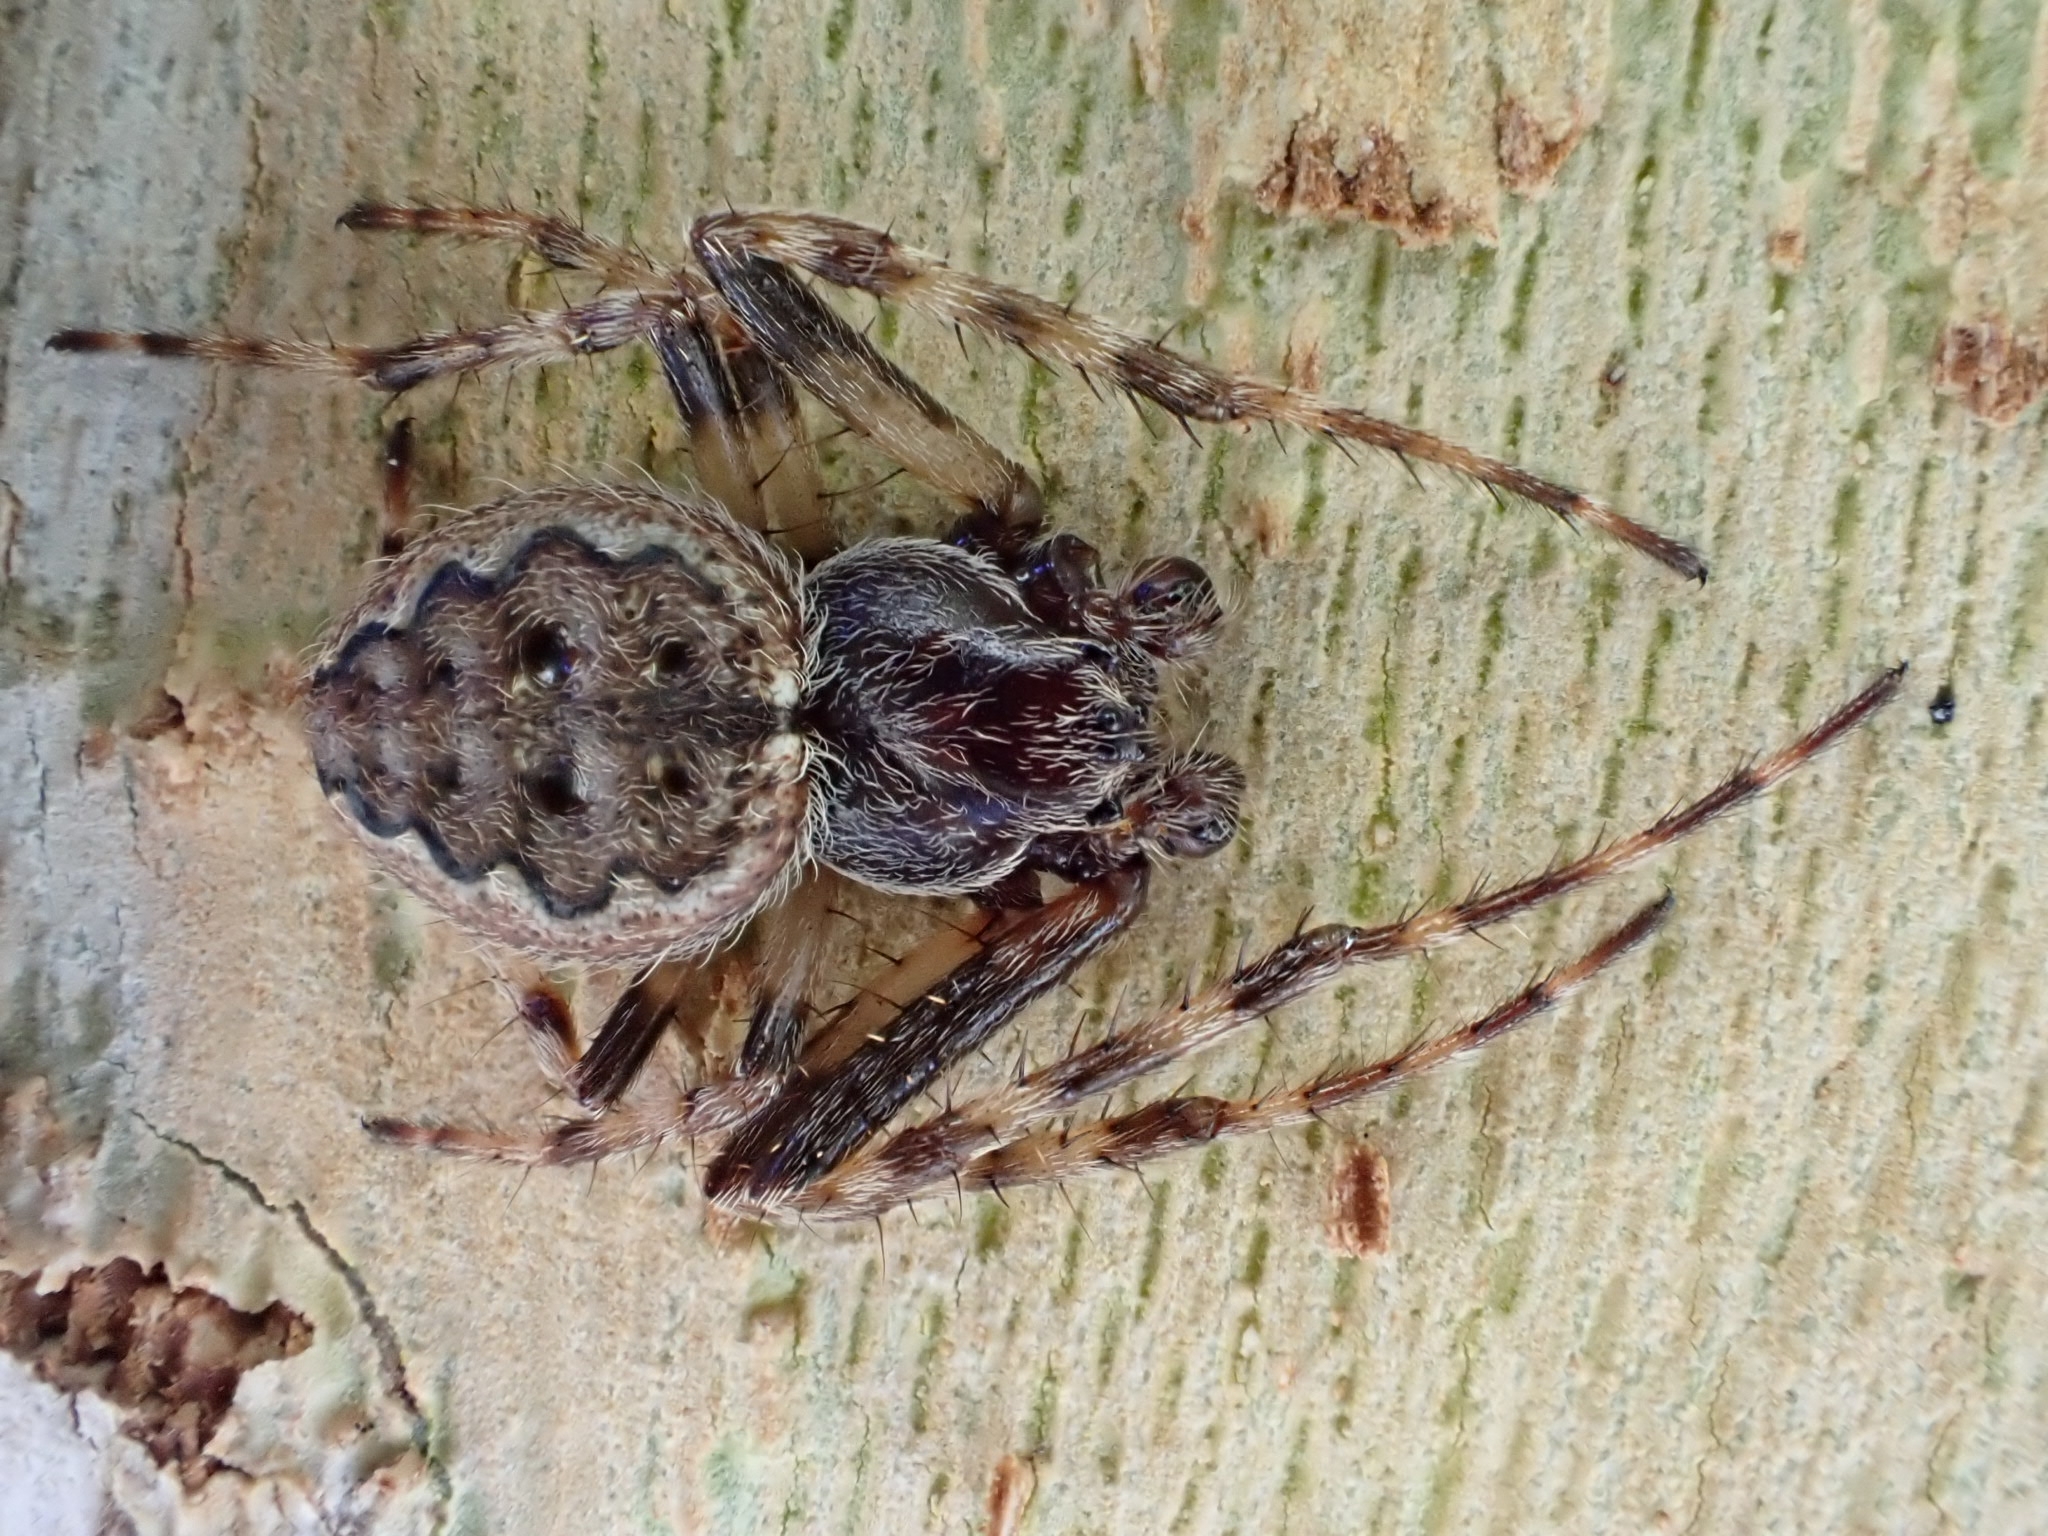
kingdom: Animalia
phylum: Arthropoda
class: Arachnida
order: Araneae
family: Araneidae
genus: Nuctenea
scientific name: Nuctenea umbratica
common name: Toad spider
